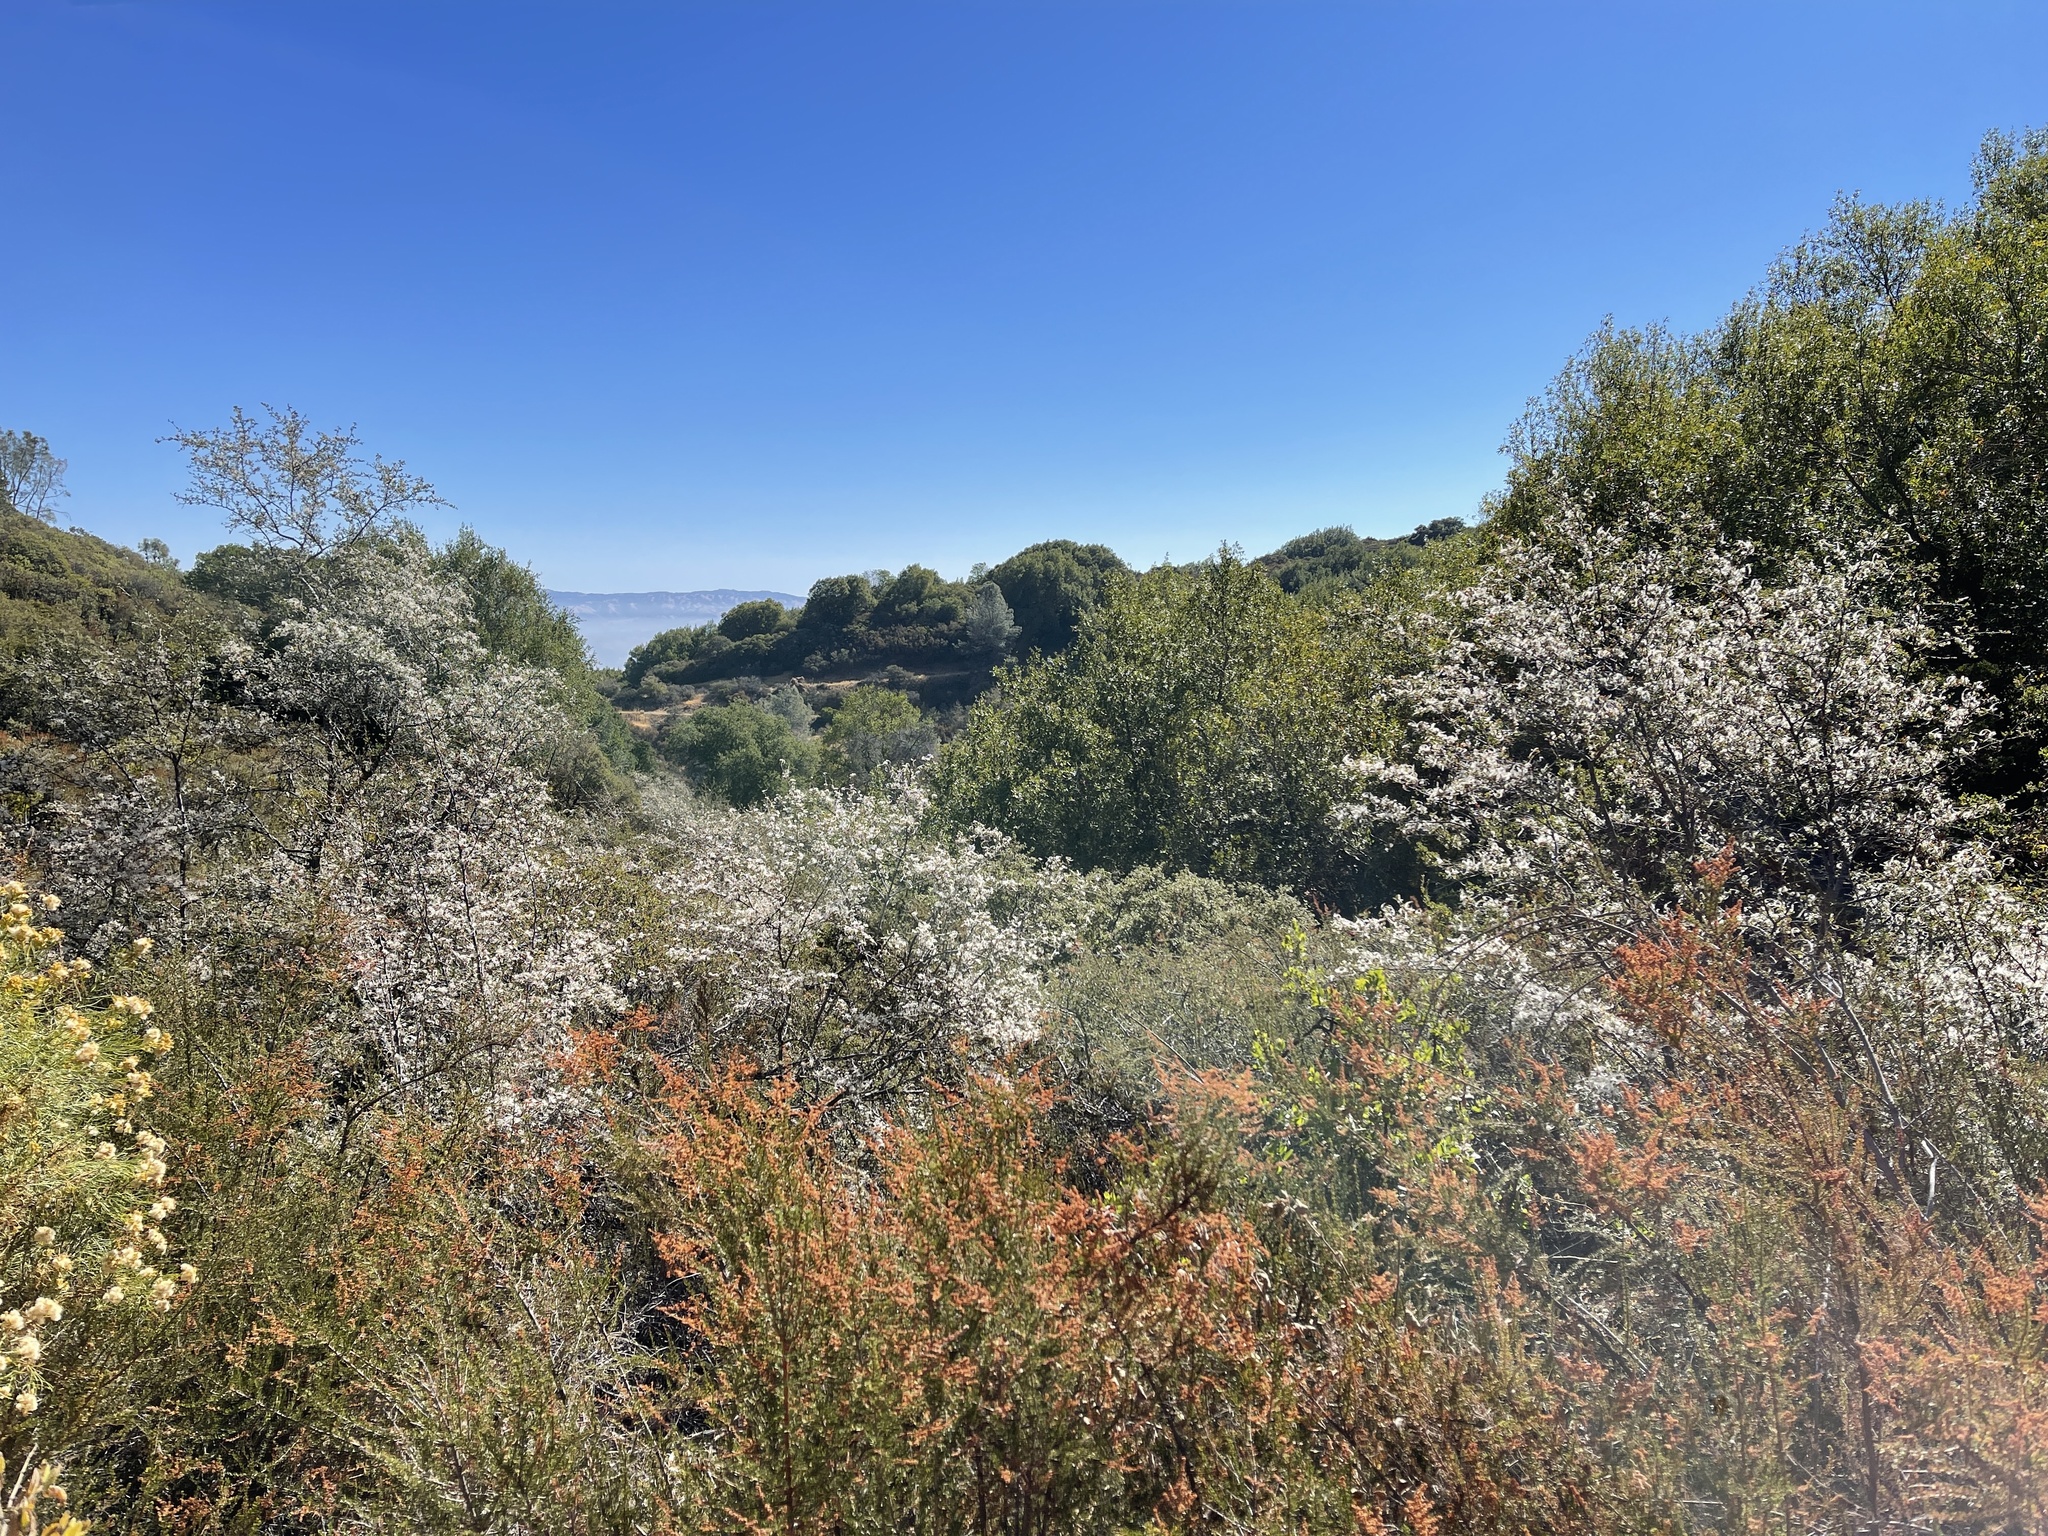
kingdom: Plantae
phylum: Tracheophyta
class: Magnoliopsida
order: Rosales
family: Rosaceae
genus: Cercocarpus
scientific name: Cercocarpus betuloides
